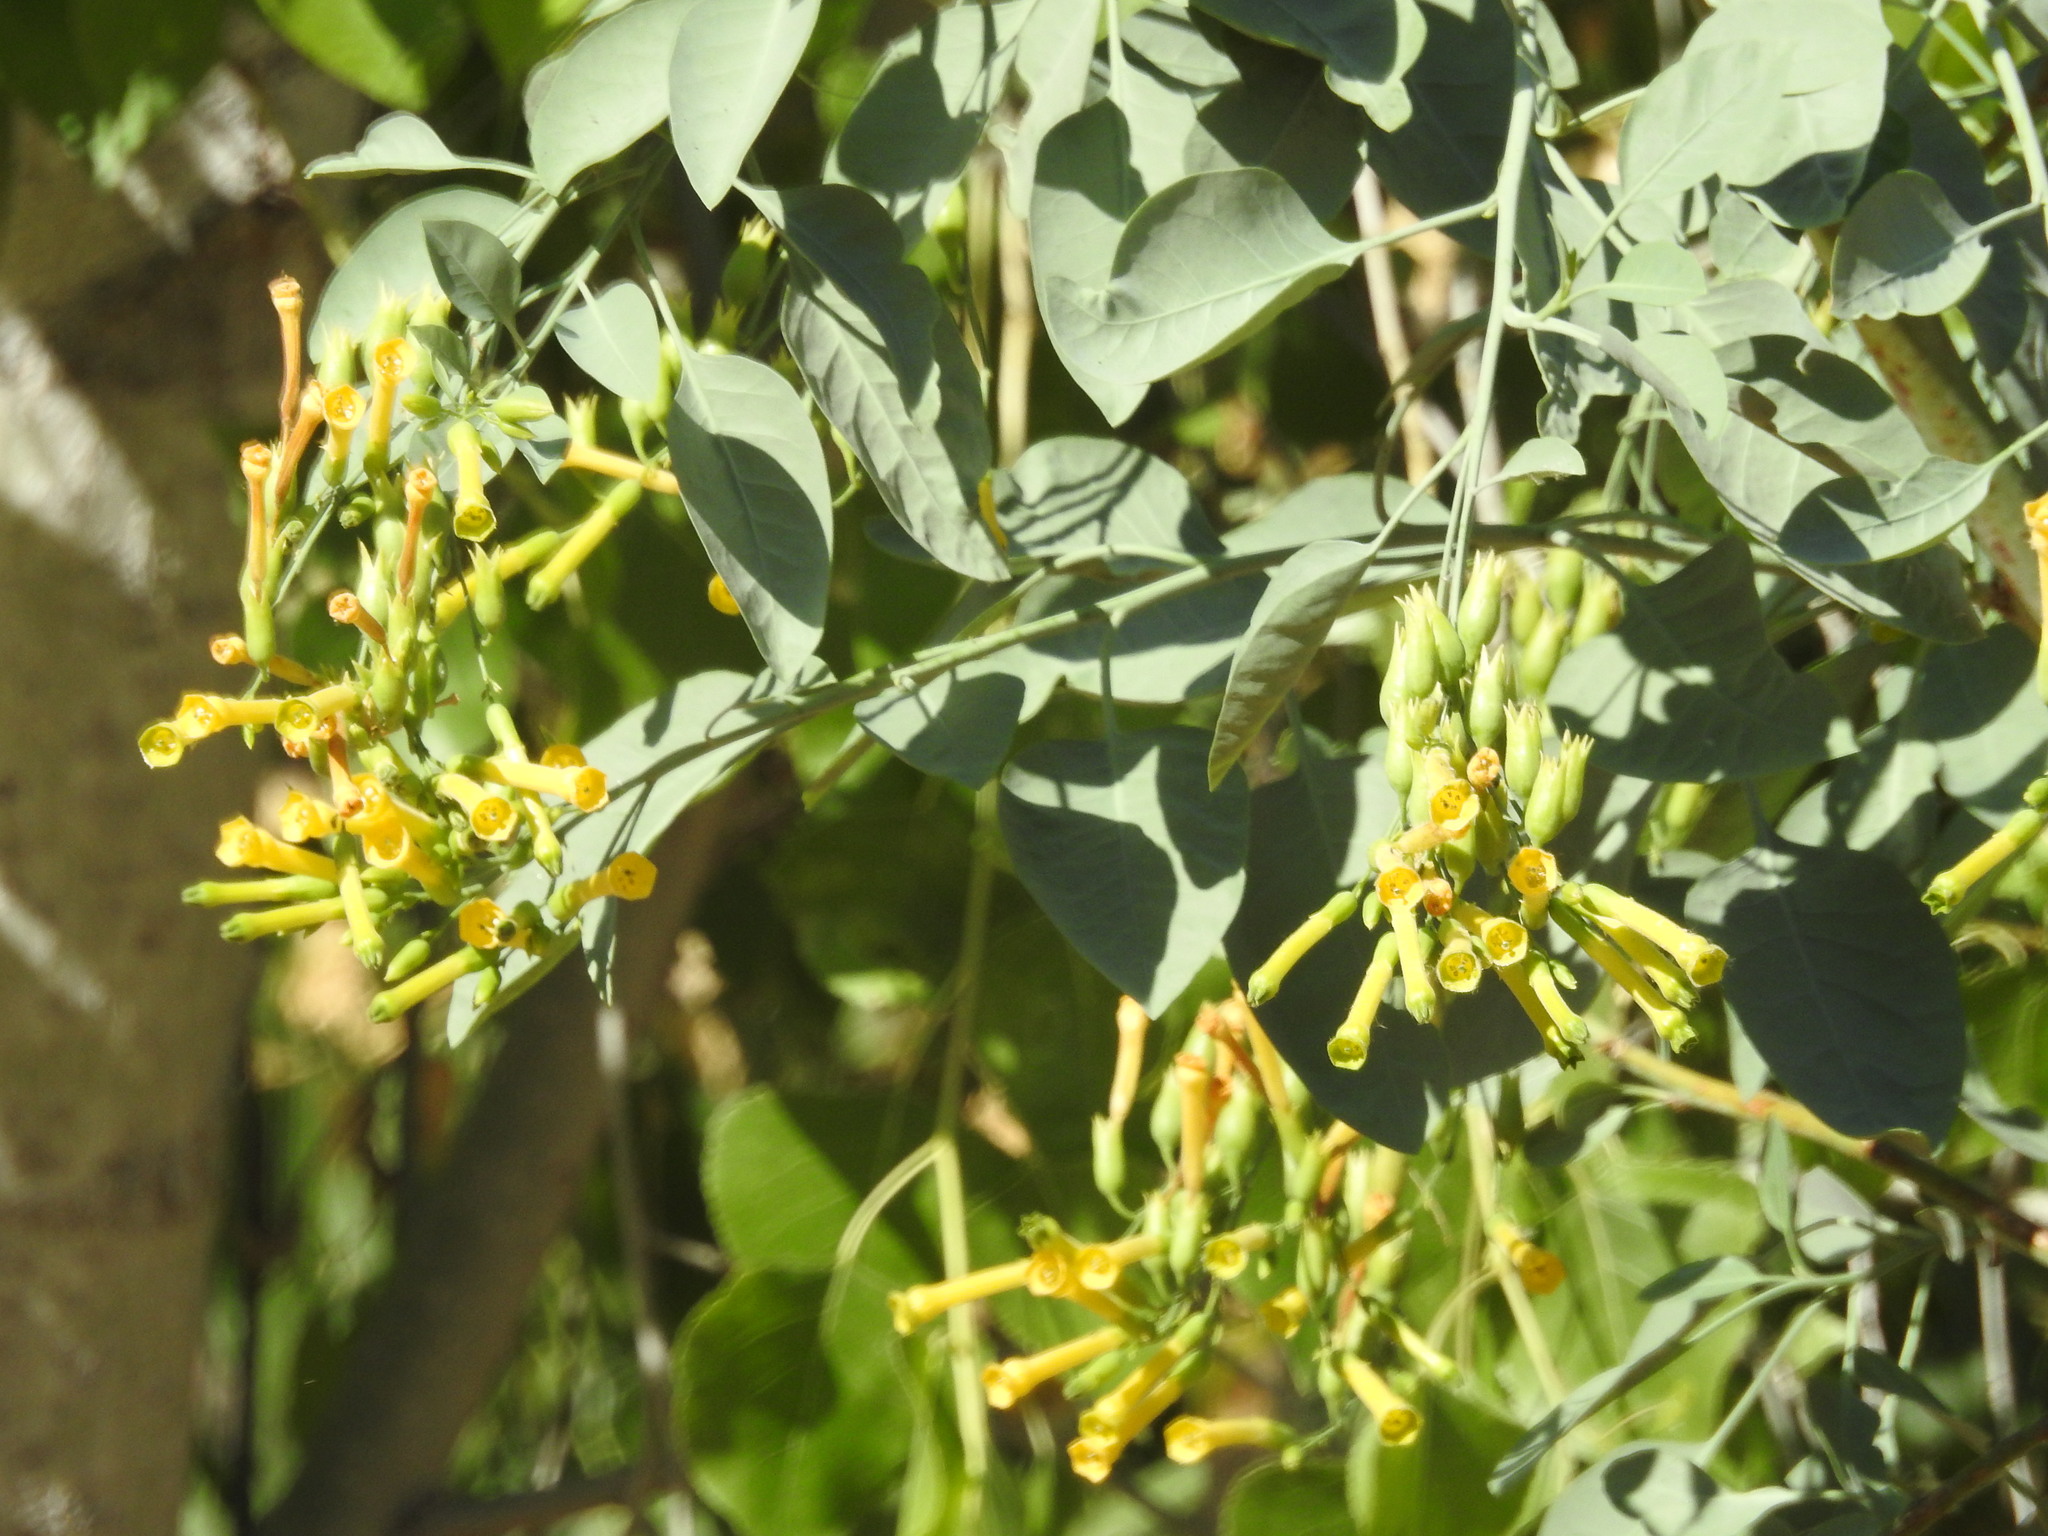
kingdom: Plantae
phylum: Tracheophyta
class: Magnoliopsida
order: Solanales
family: Solanaceae
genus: Nicotiana
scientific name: Nicotiana glauca
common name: Tree tobacco
